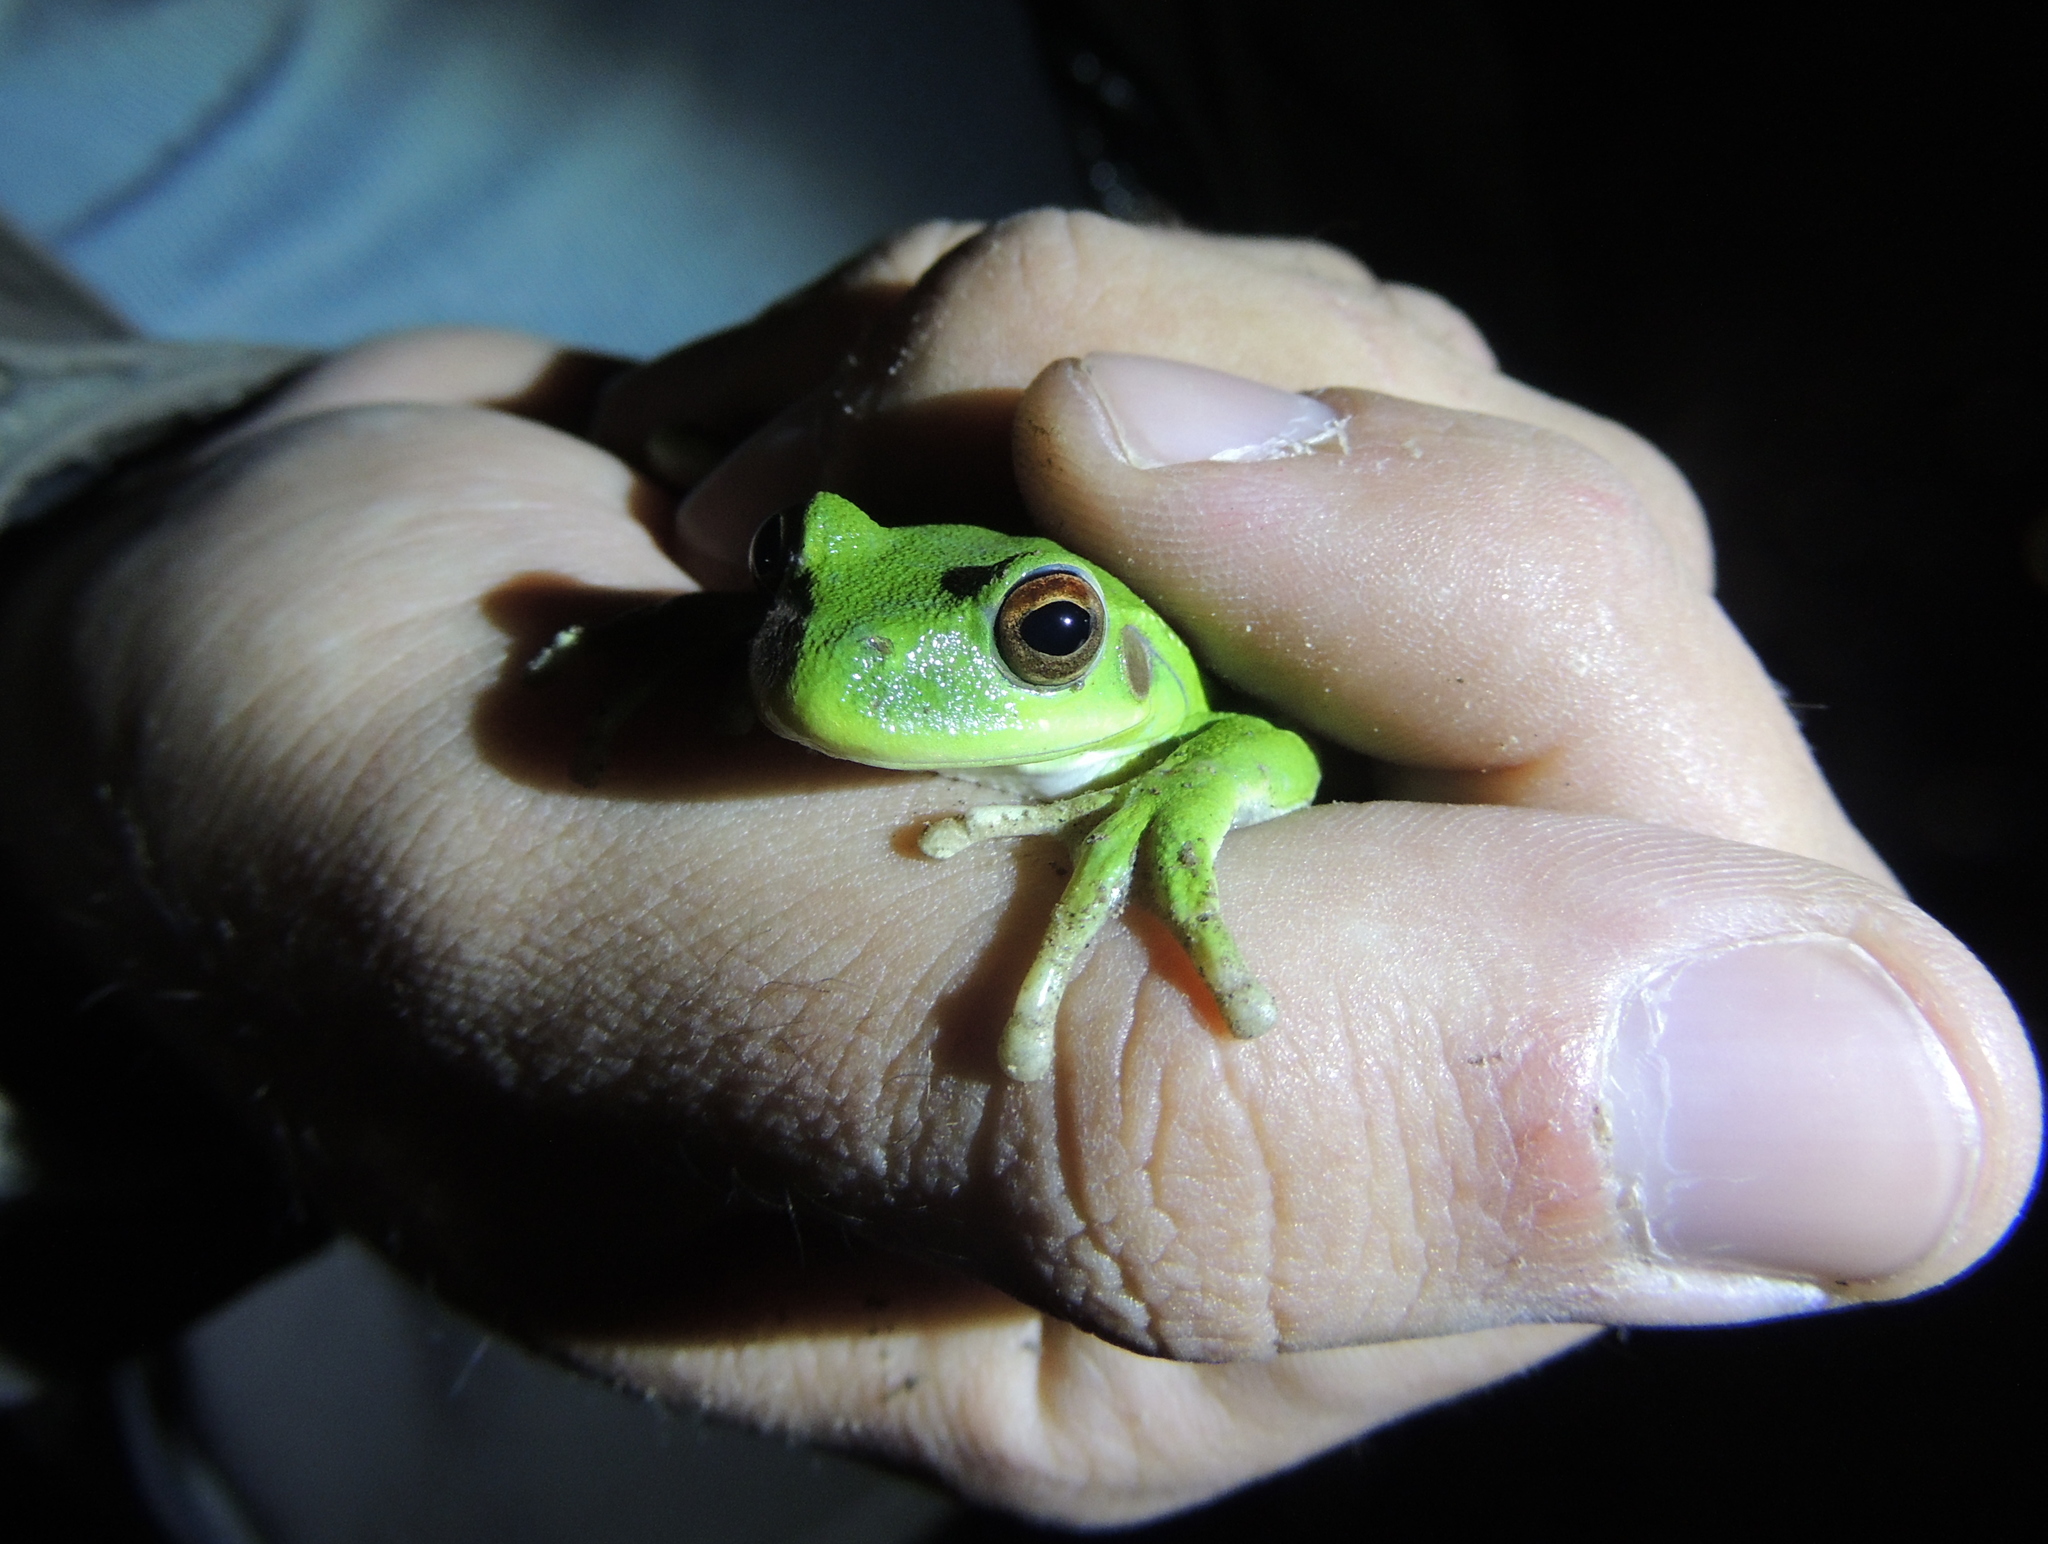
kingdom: Animalia
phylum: Chordata
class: Amphibia
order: Anura
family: Hylidae
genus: Boana
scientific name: Boana riojana
